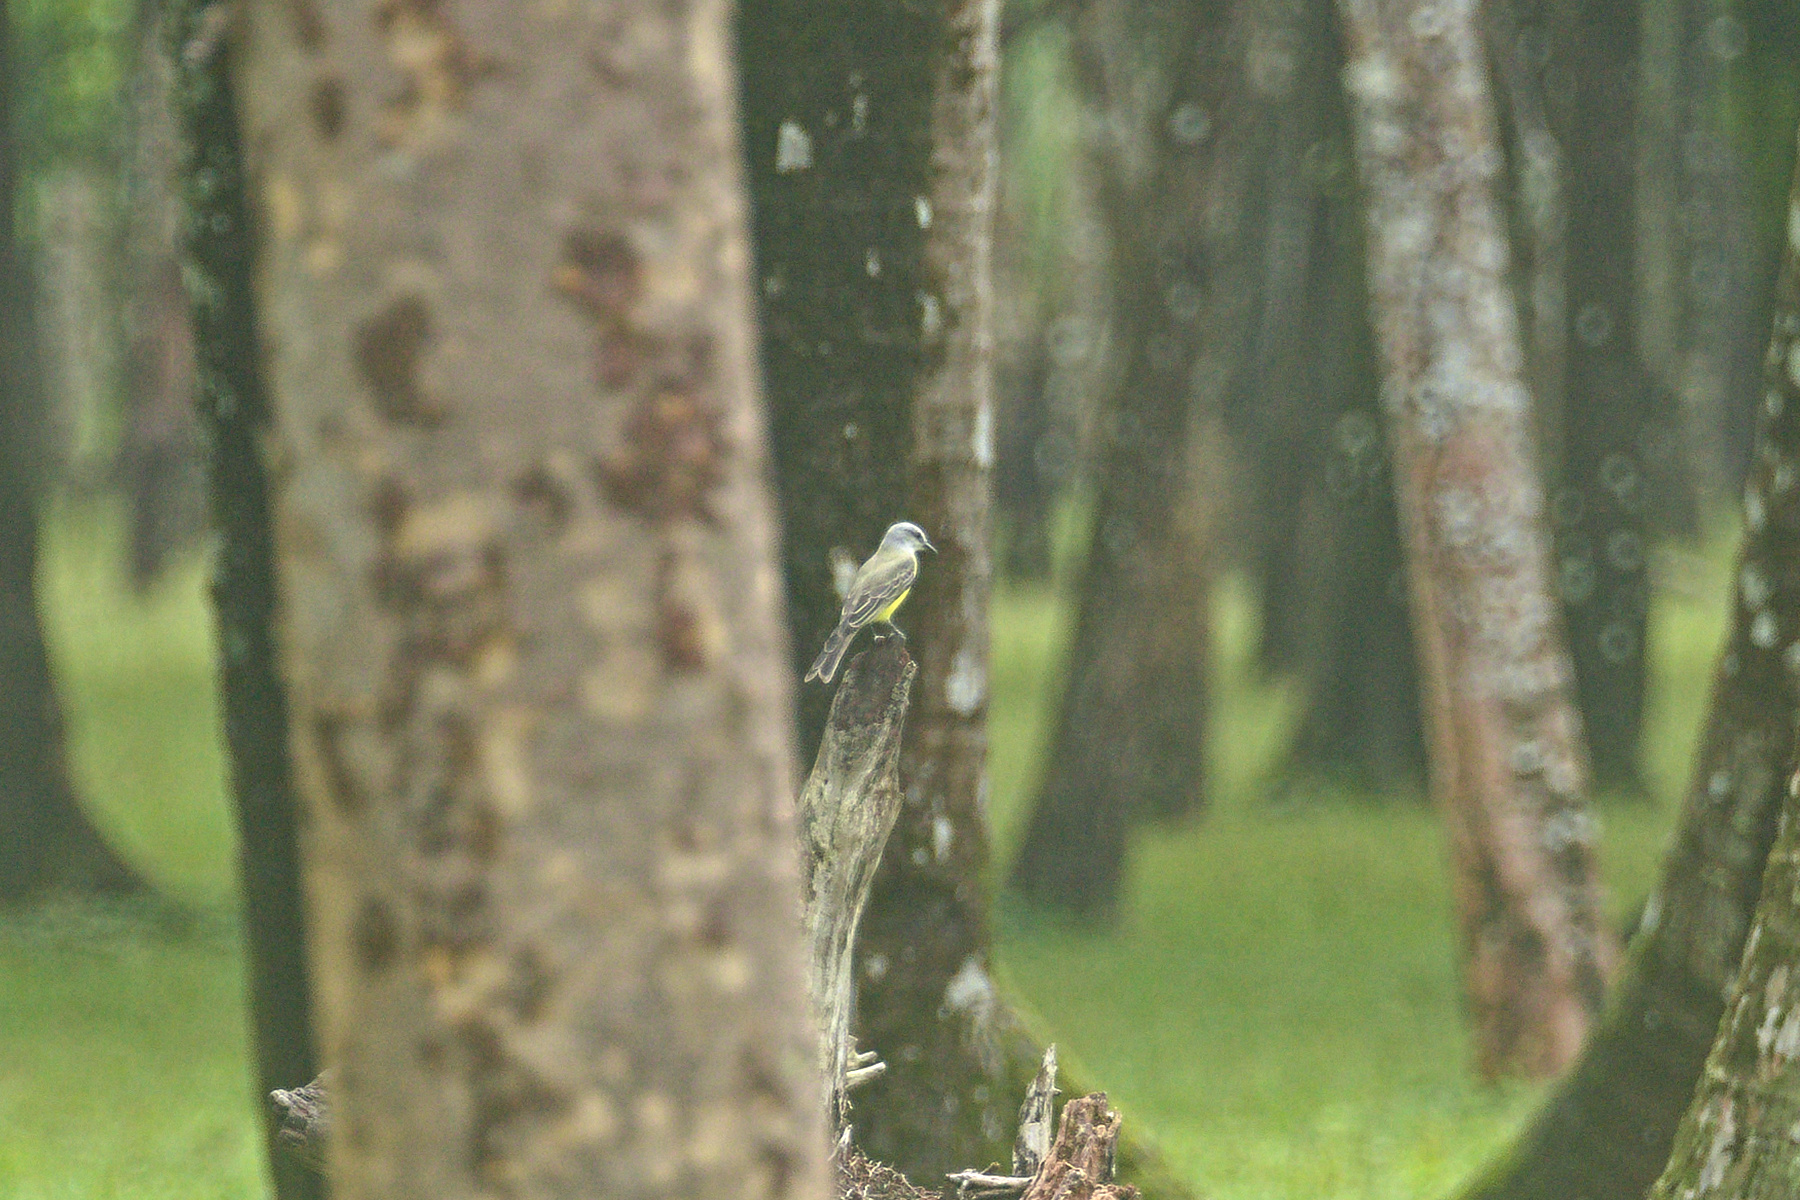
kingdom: Animalia
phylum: Chordata
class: Aves
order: Passeriformes
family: Tyrannidae
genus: Tyrannus
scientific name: Tyrannus melancholicus
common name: Tropical kingbird
